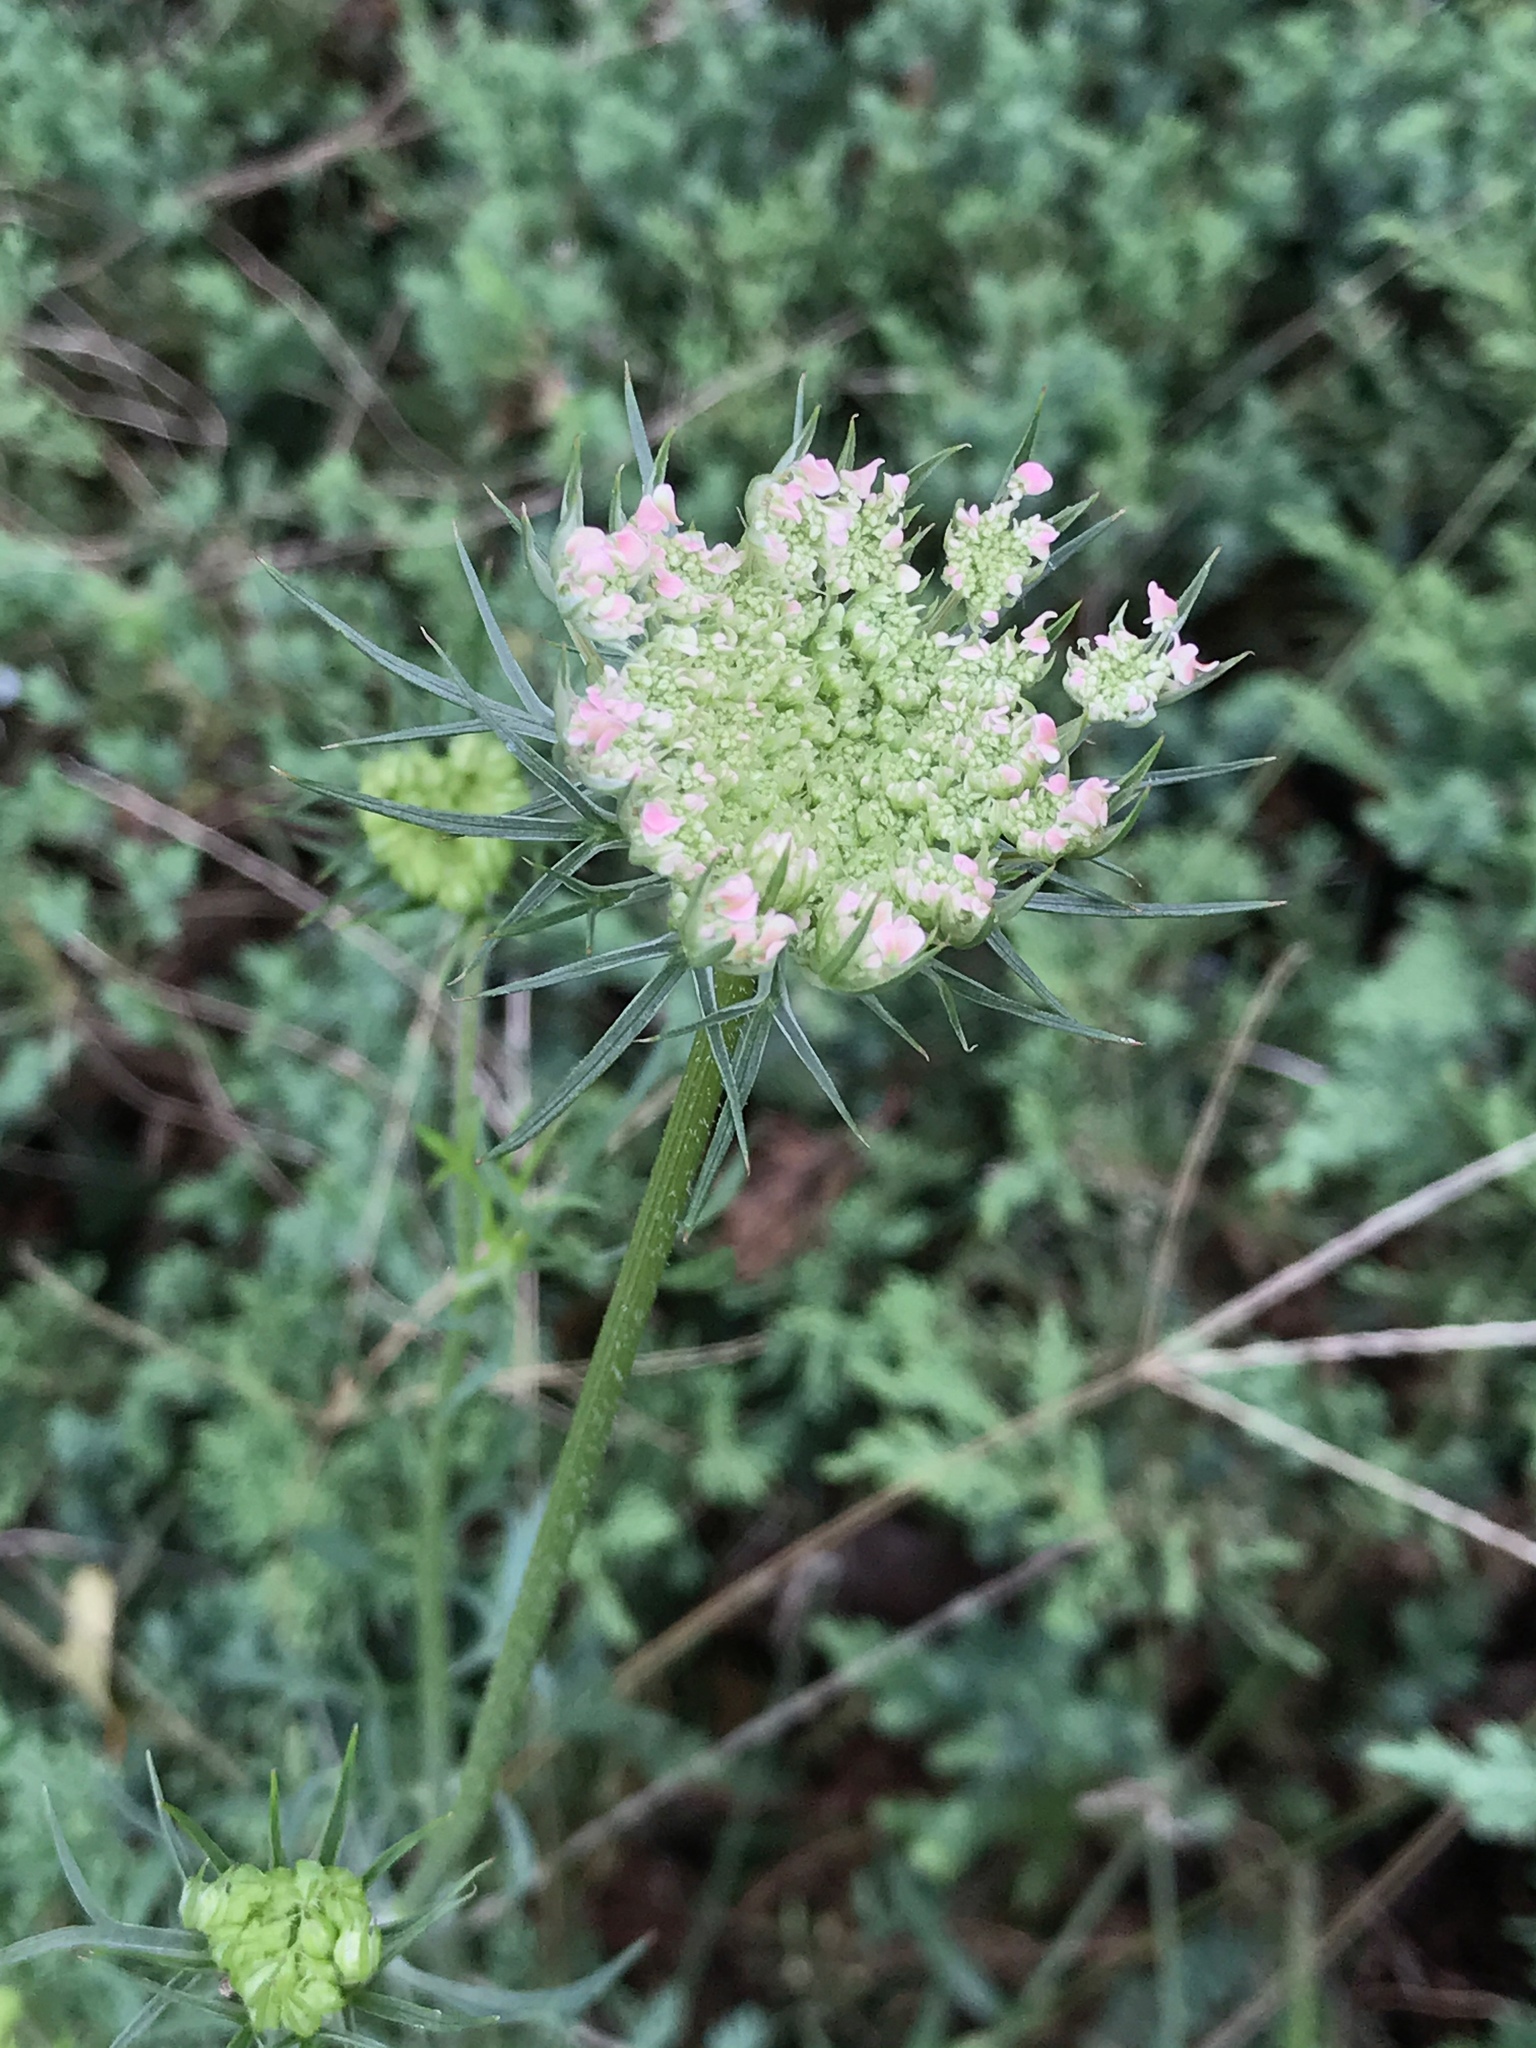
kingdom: Plantae
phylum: Tracheophyta
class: Magnoliopsida
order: Apiales
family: Apiaceae
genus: Daucus
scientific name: Daucus carota
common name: Wild carrot
